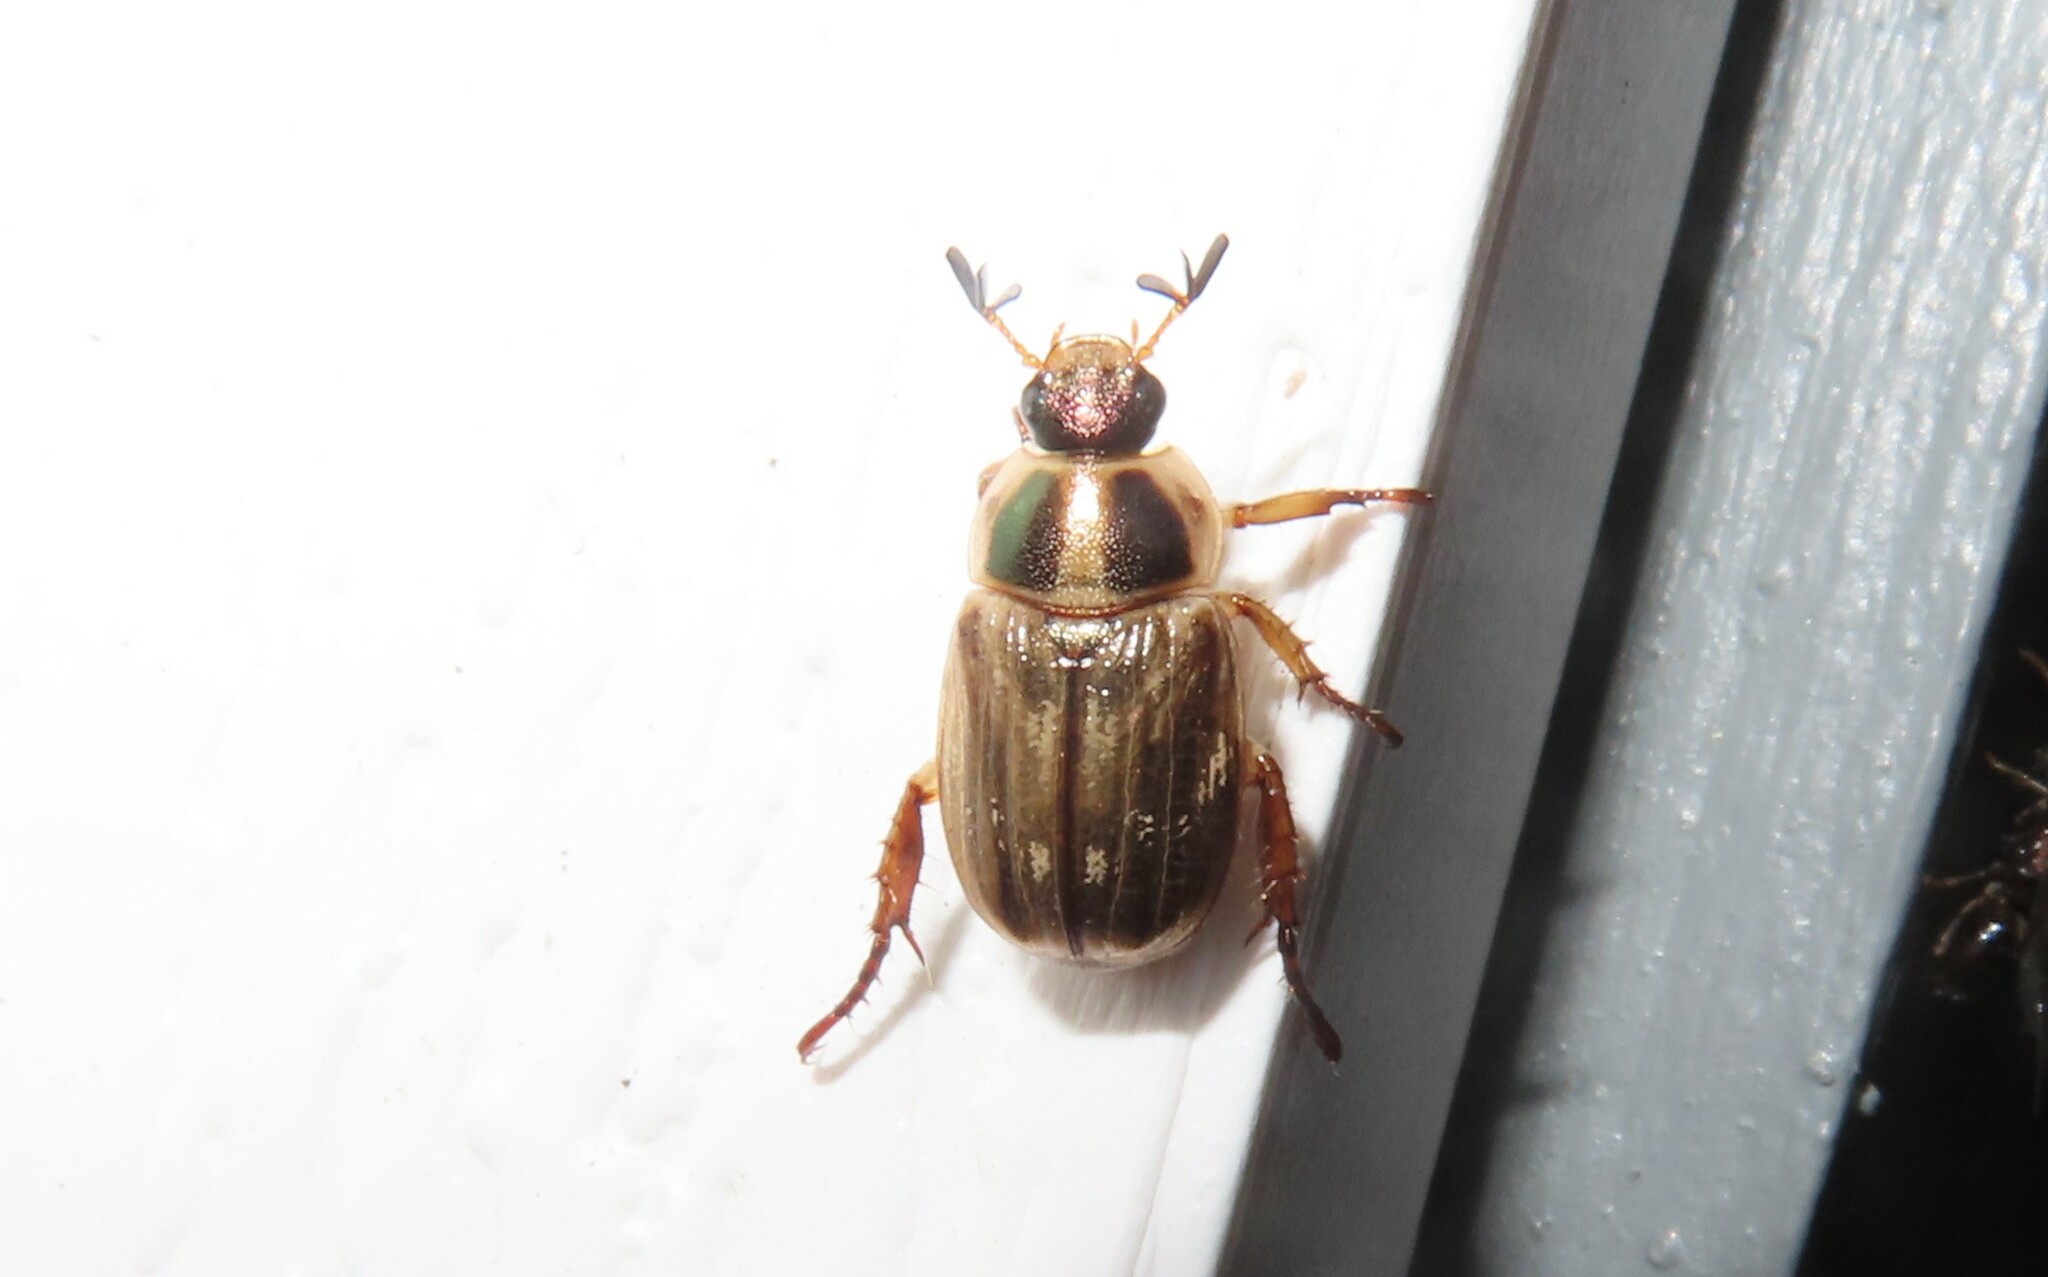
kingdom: Animalia
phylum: Arthropoda
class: Insecta
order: Coleoptera
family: Scarabaeidae
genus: Exomala
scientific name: Exomala orientalis
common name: Oriental beetle
